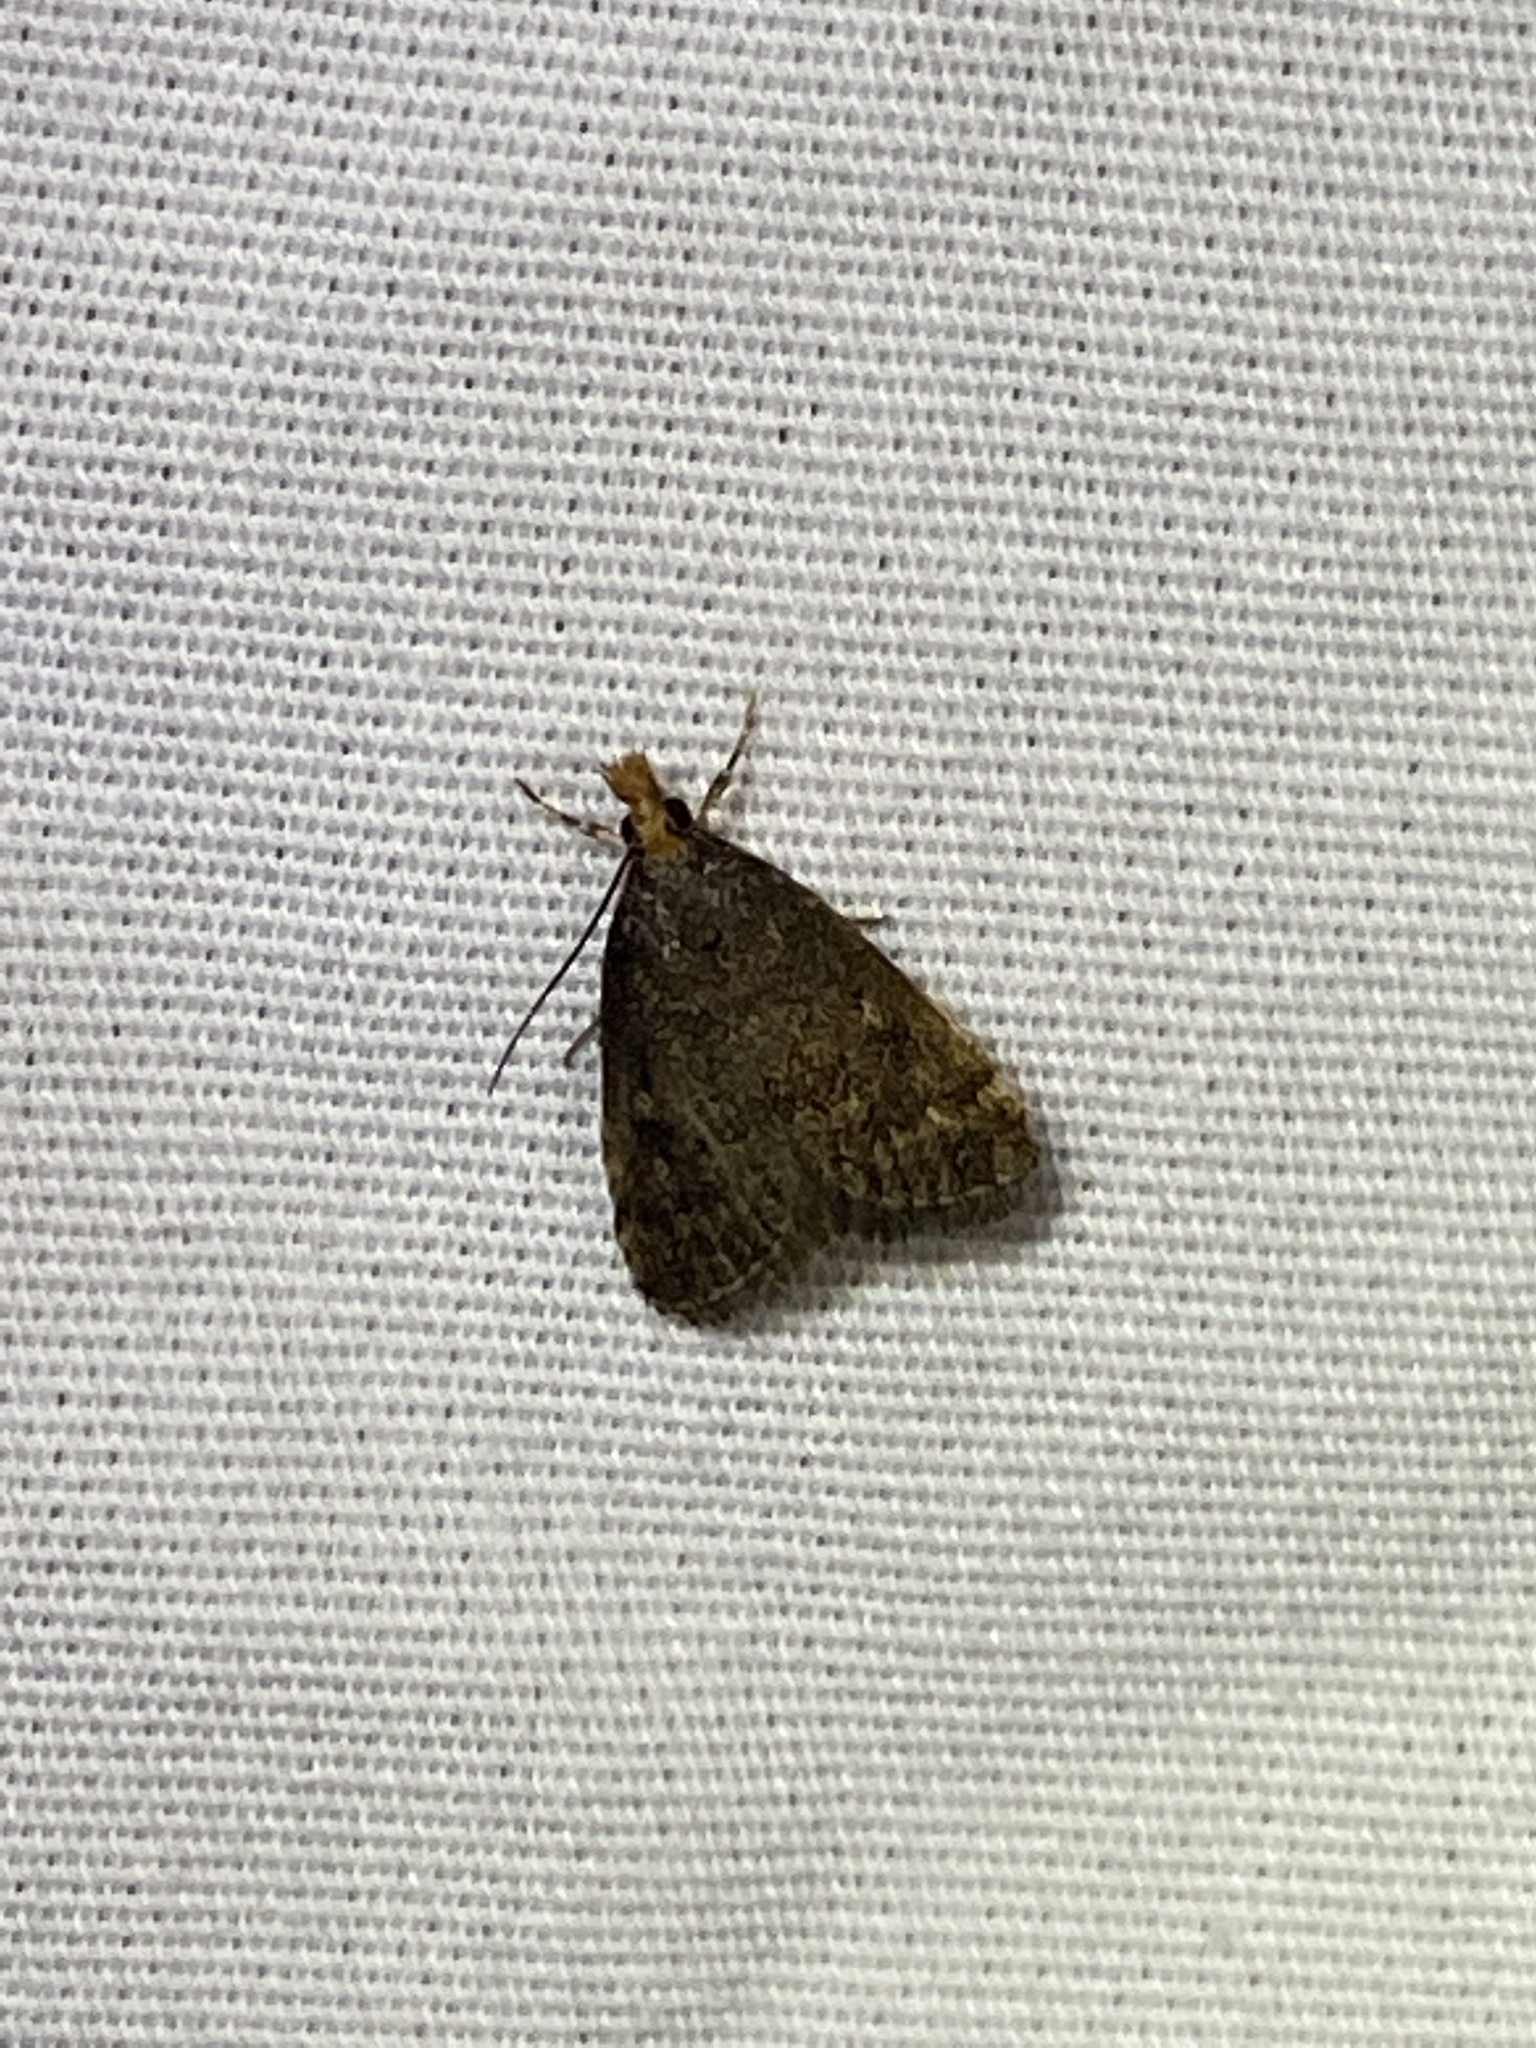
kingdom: Animalia
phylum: Arthropoda
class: Insecta
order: Lepidoptera
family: Crambidae
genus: Pyrausta
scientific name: Pyrausta merrickalis
